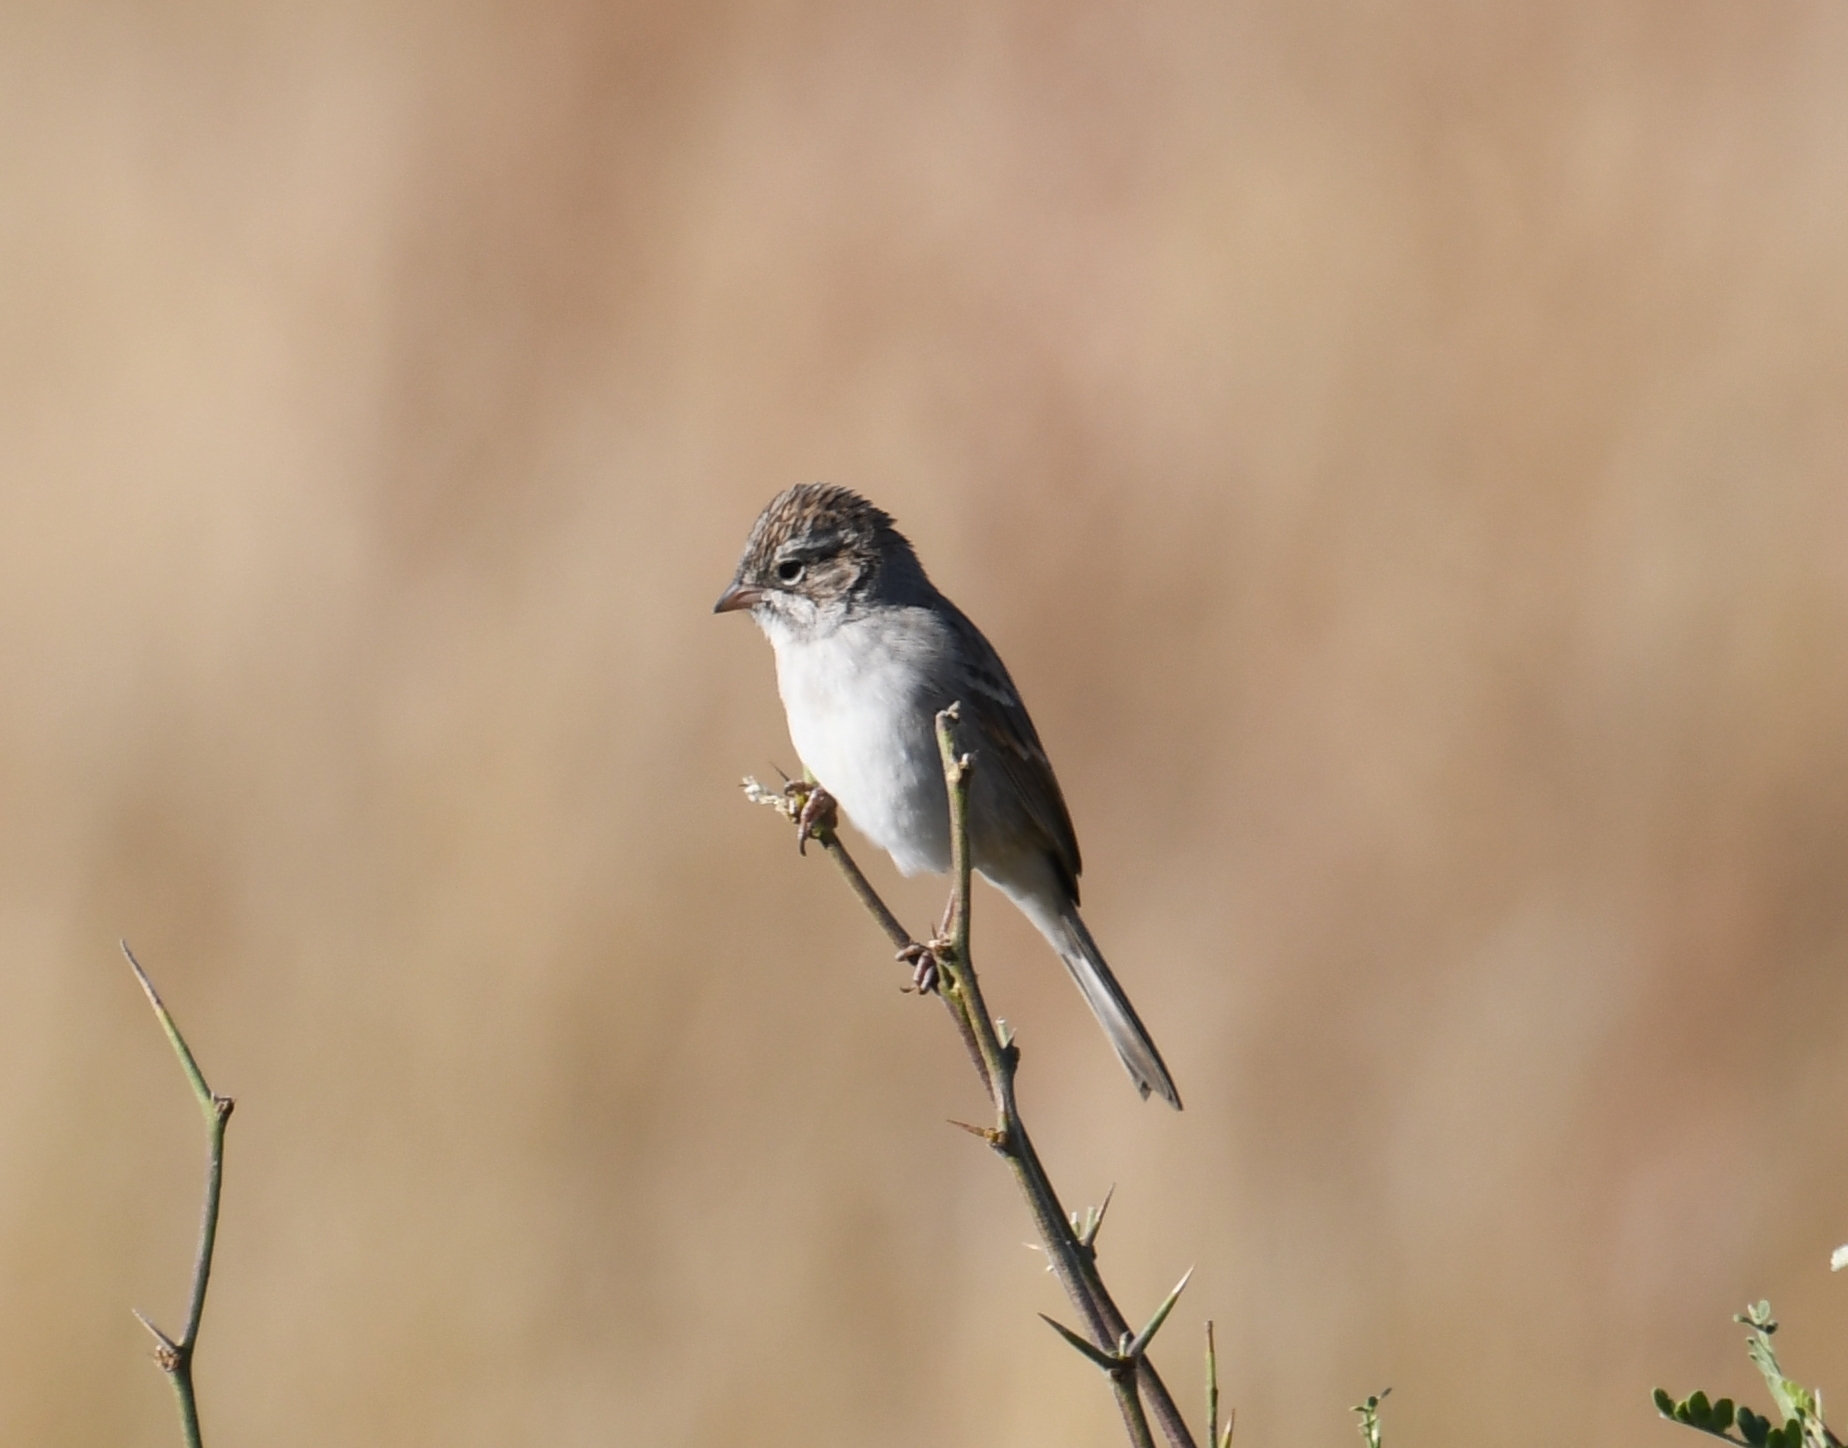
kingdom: Animalia
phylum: Chordata
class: Aves
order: Passeriformes
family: Passerellidae
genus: Spizella
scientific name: Spizella breweri
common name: Brewer's sparrow
